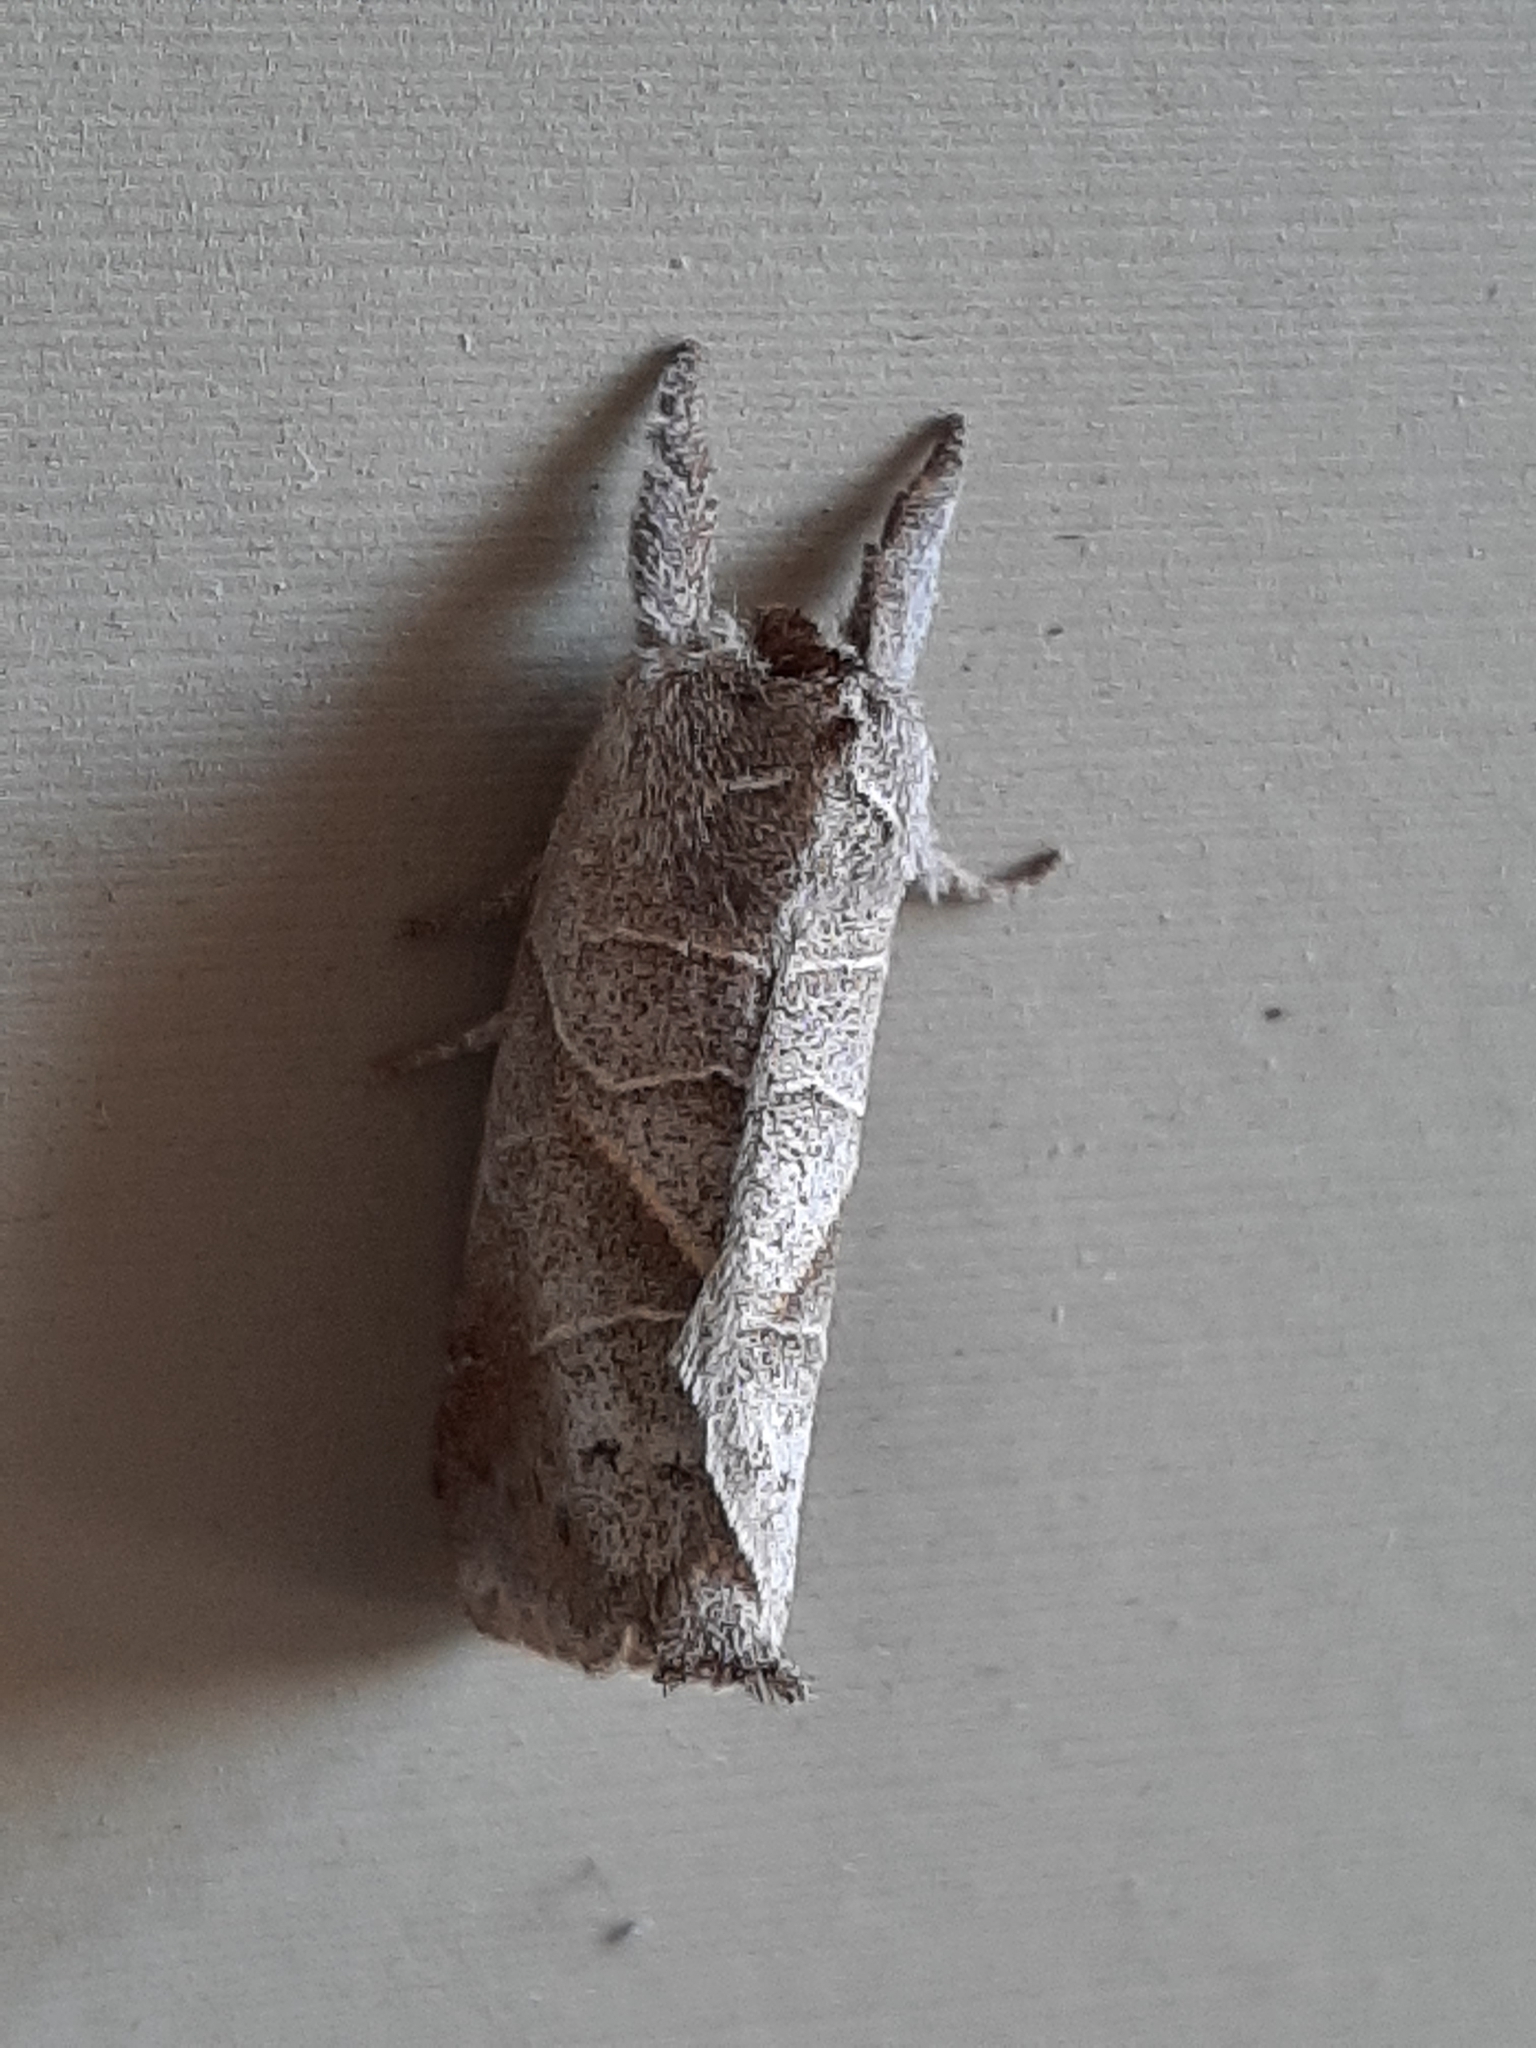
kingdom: Animalia
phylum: Arthropoda
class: Insecta
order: Lepidoptera
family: Notodontidae
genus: Clostera
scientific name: Clostera inclusa
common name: Angle-lined prominent
